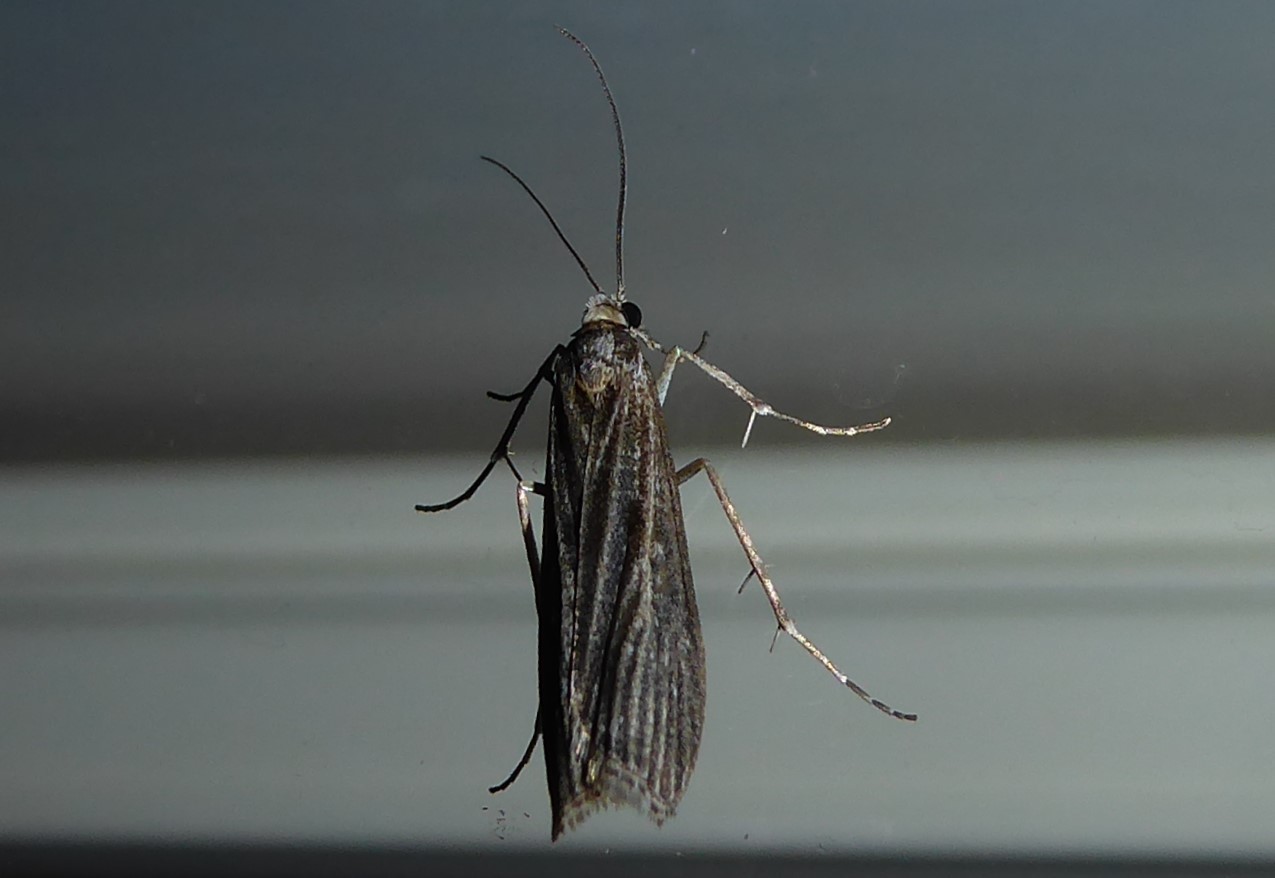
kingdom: Animalia
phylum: Arthropoda
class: Insecta
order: Lepidoptera
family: Crambidae
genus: Eudonia
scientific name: Eudonia atmogramma
